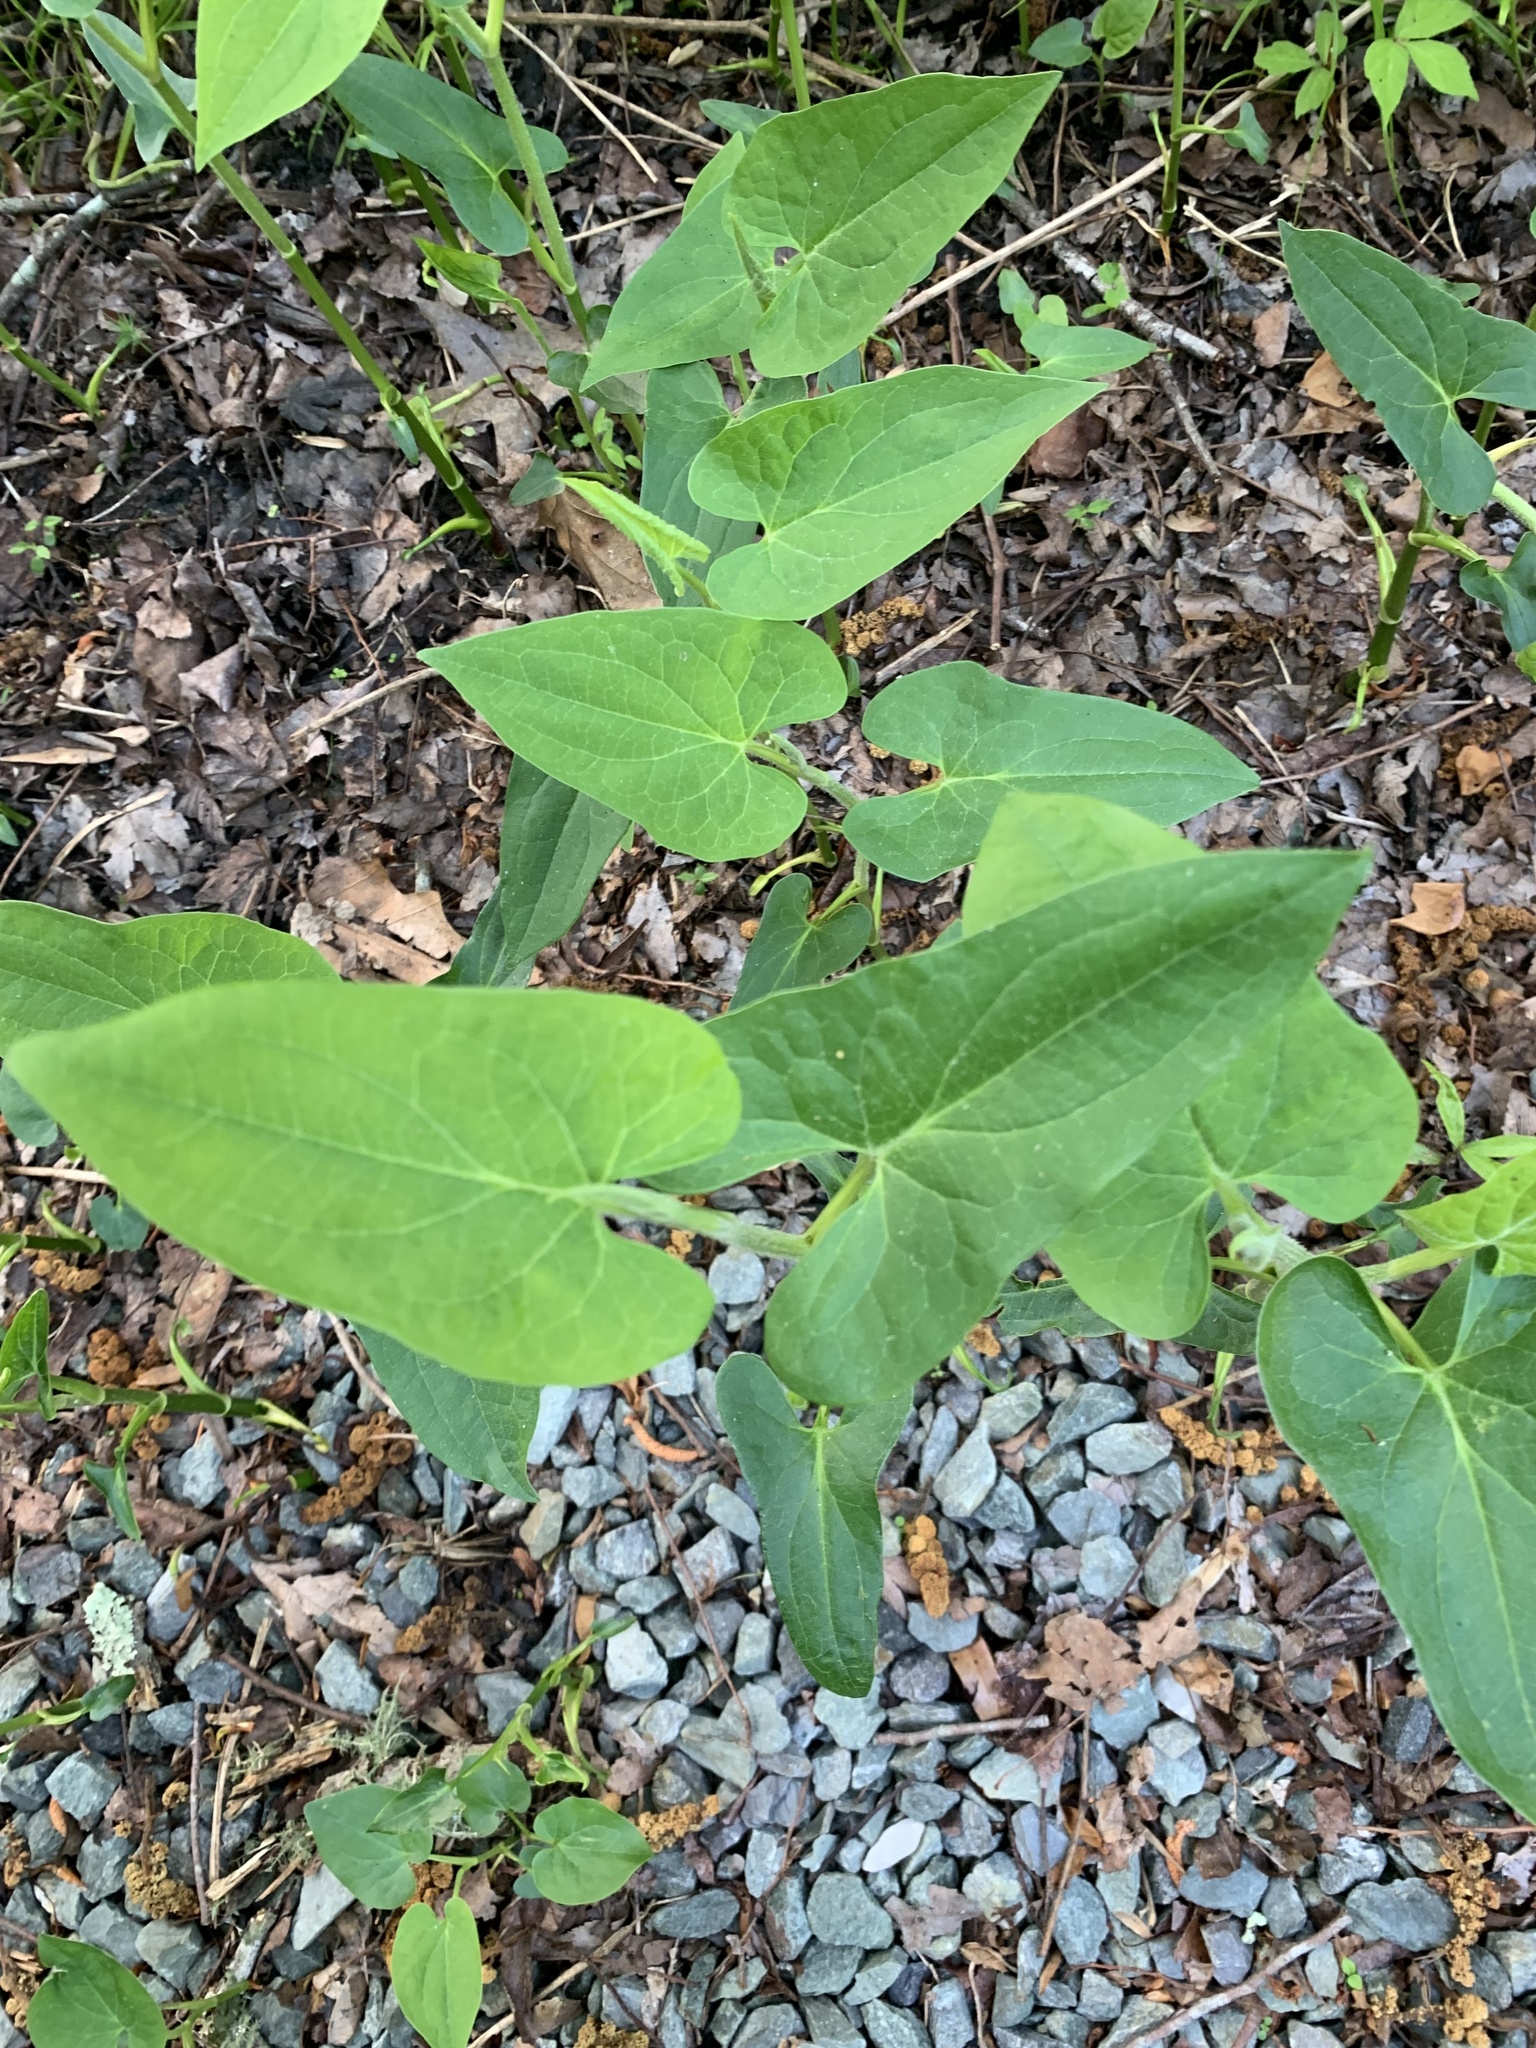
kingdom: Plantae
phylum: Tracheophyta
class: Magnoliopsida
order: Piperales
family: Saururaceae
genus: Saururus
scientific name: Saururus cernuus
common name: Lizard's-tail
